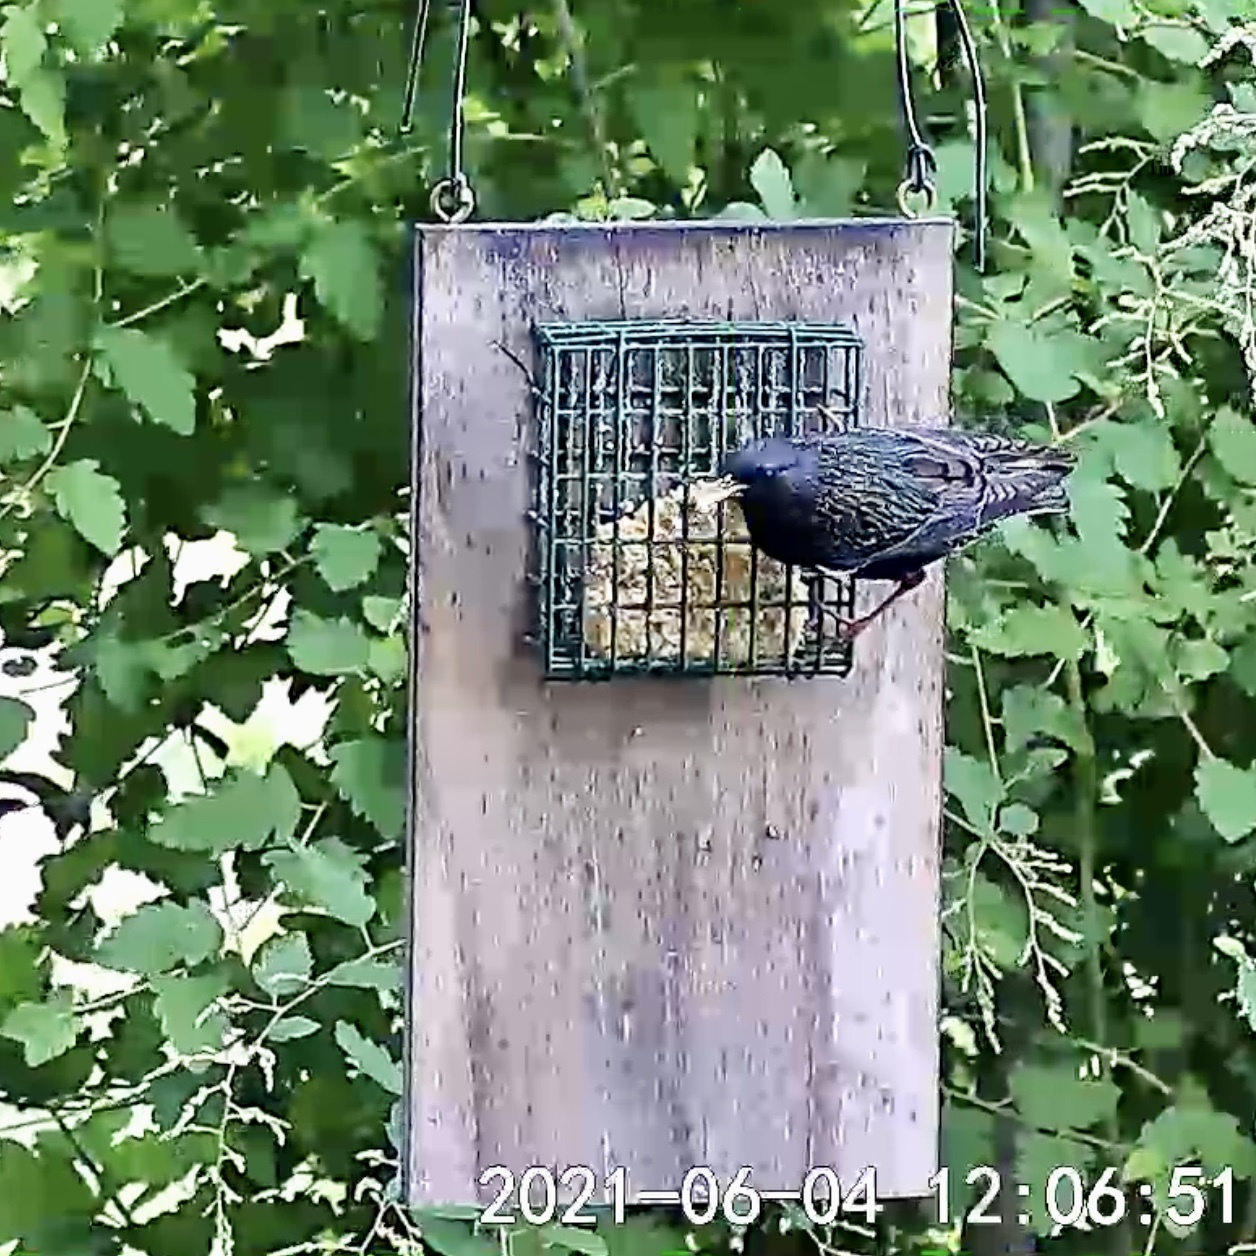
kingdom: Animalia
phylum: Chordata
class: Aves
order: Passeriformes
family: Sturnidae
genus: Sturnus
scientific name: Sturnus vulgaris
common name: Common starling
